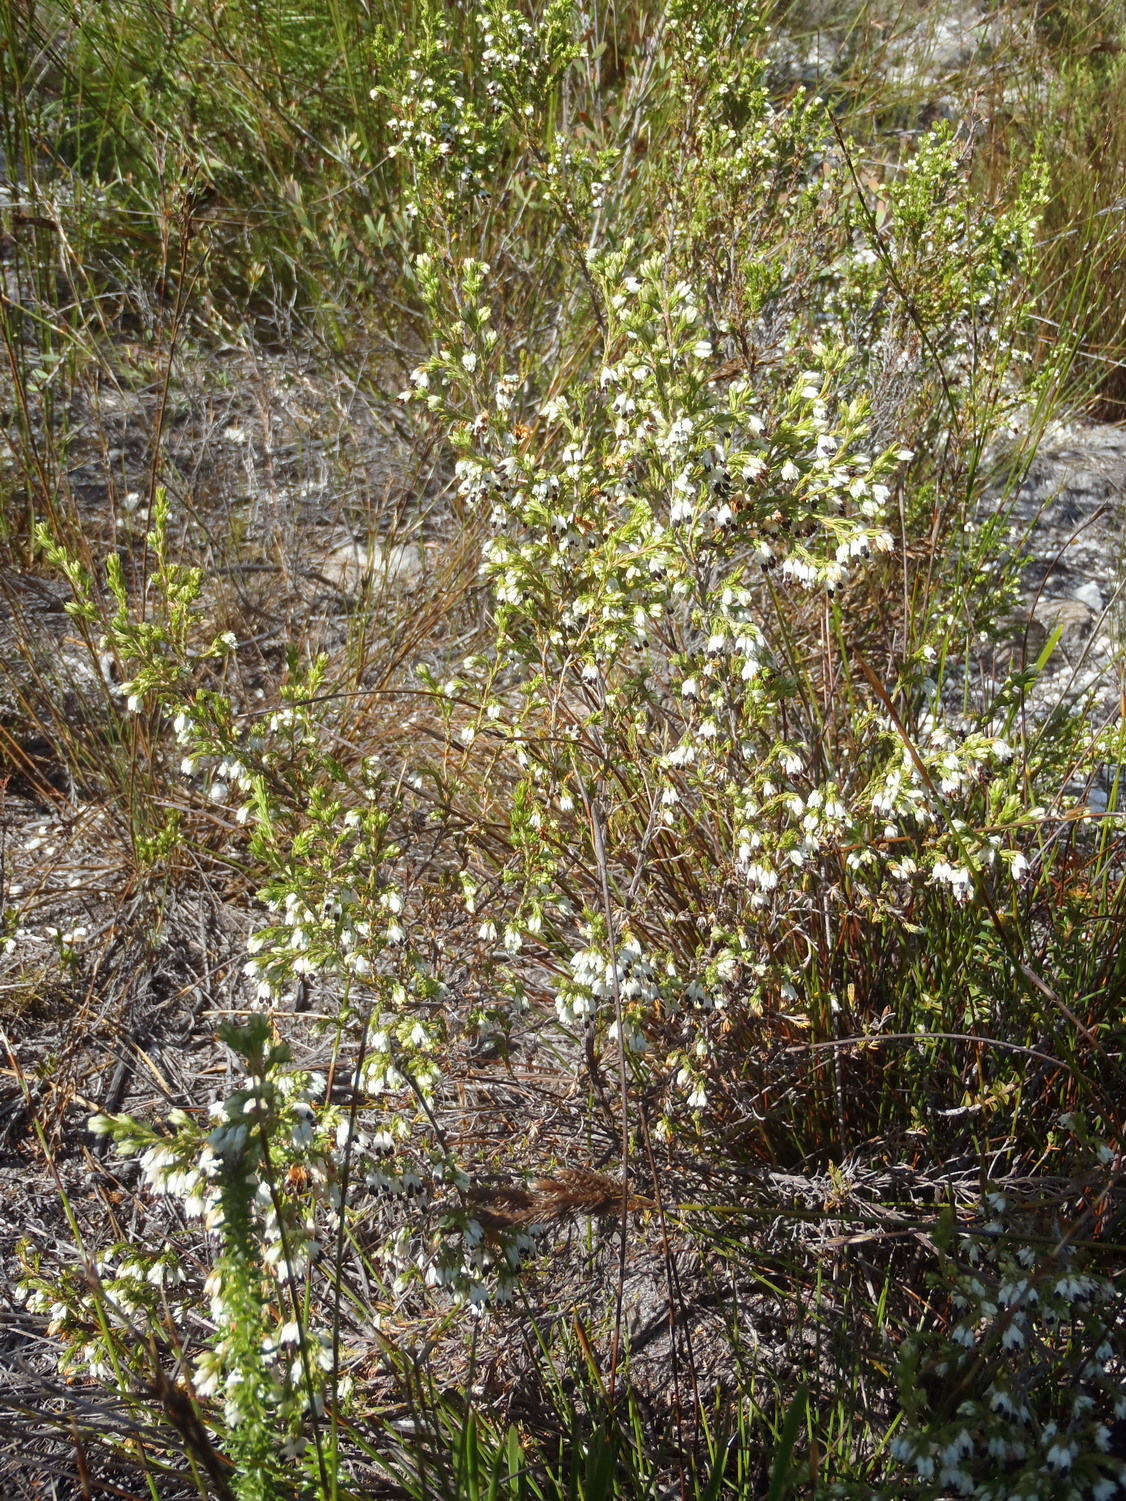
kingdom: Plantae
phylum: Tracheophyta
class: Magnoliopsida
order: Ericales
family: Ericaceae
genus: Erica
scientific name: Erica imbricata
